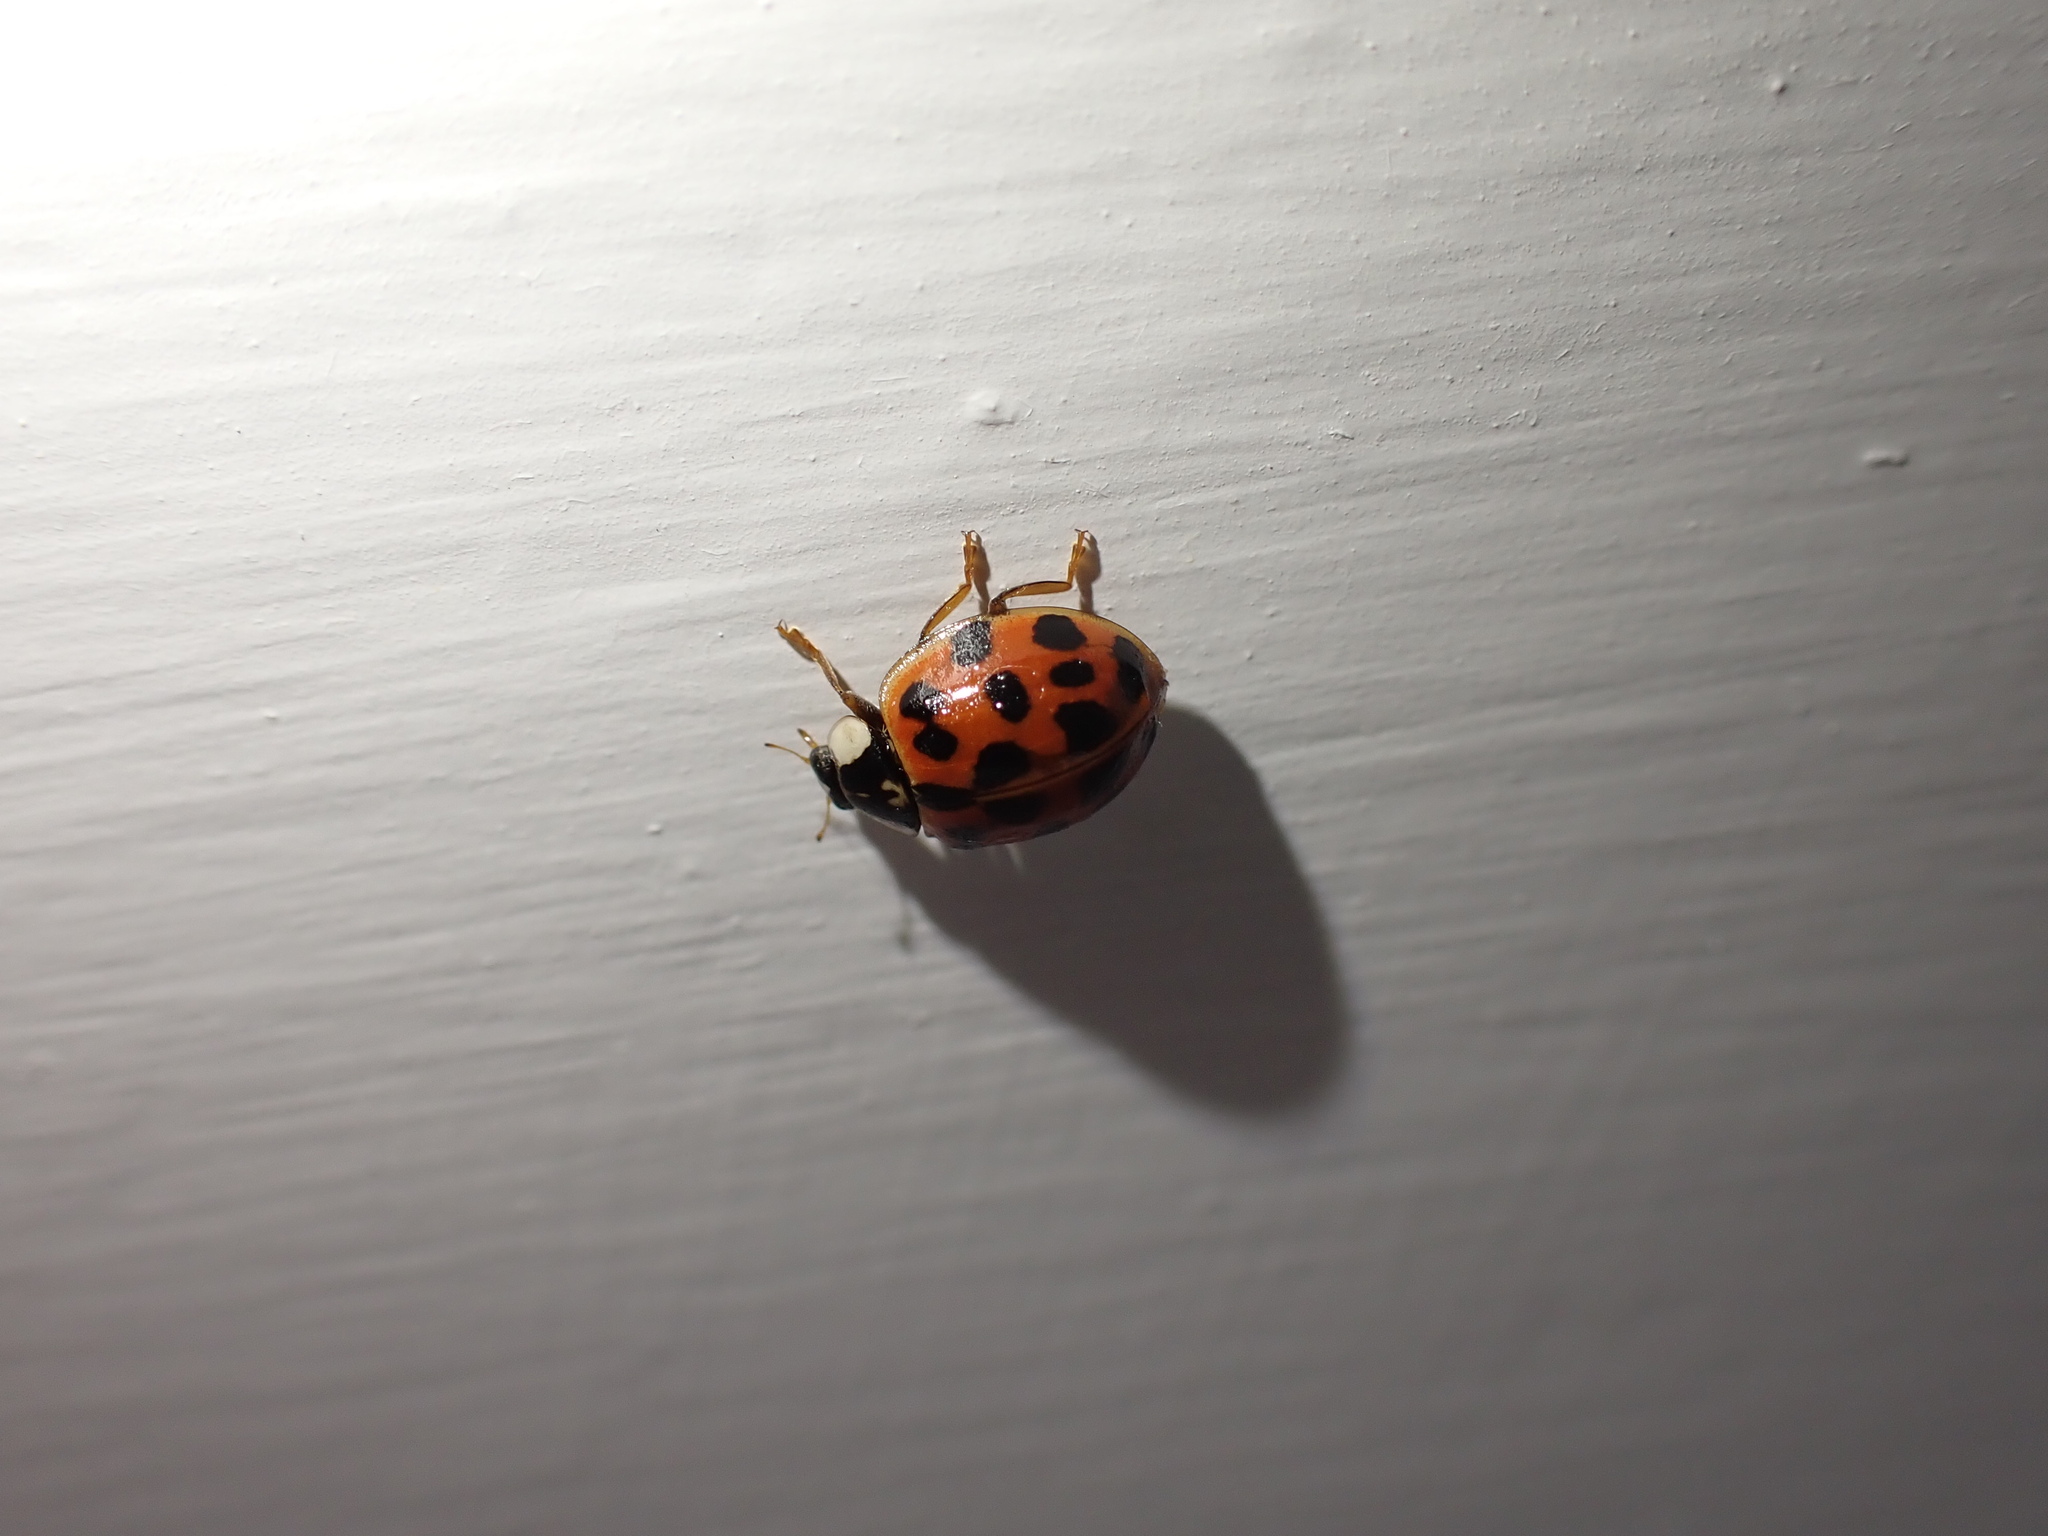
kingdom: Animalia
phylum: Arthropoda
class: Insecta
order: Coleoptera
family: Coccinellidae
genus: Harmonia
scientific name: Harmonia axyridis
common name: Harlequin ladybird
